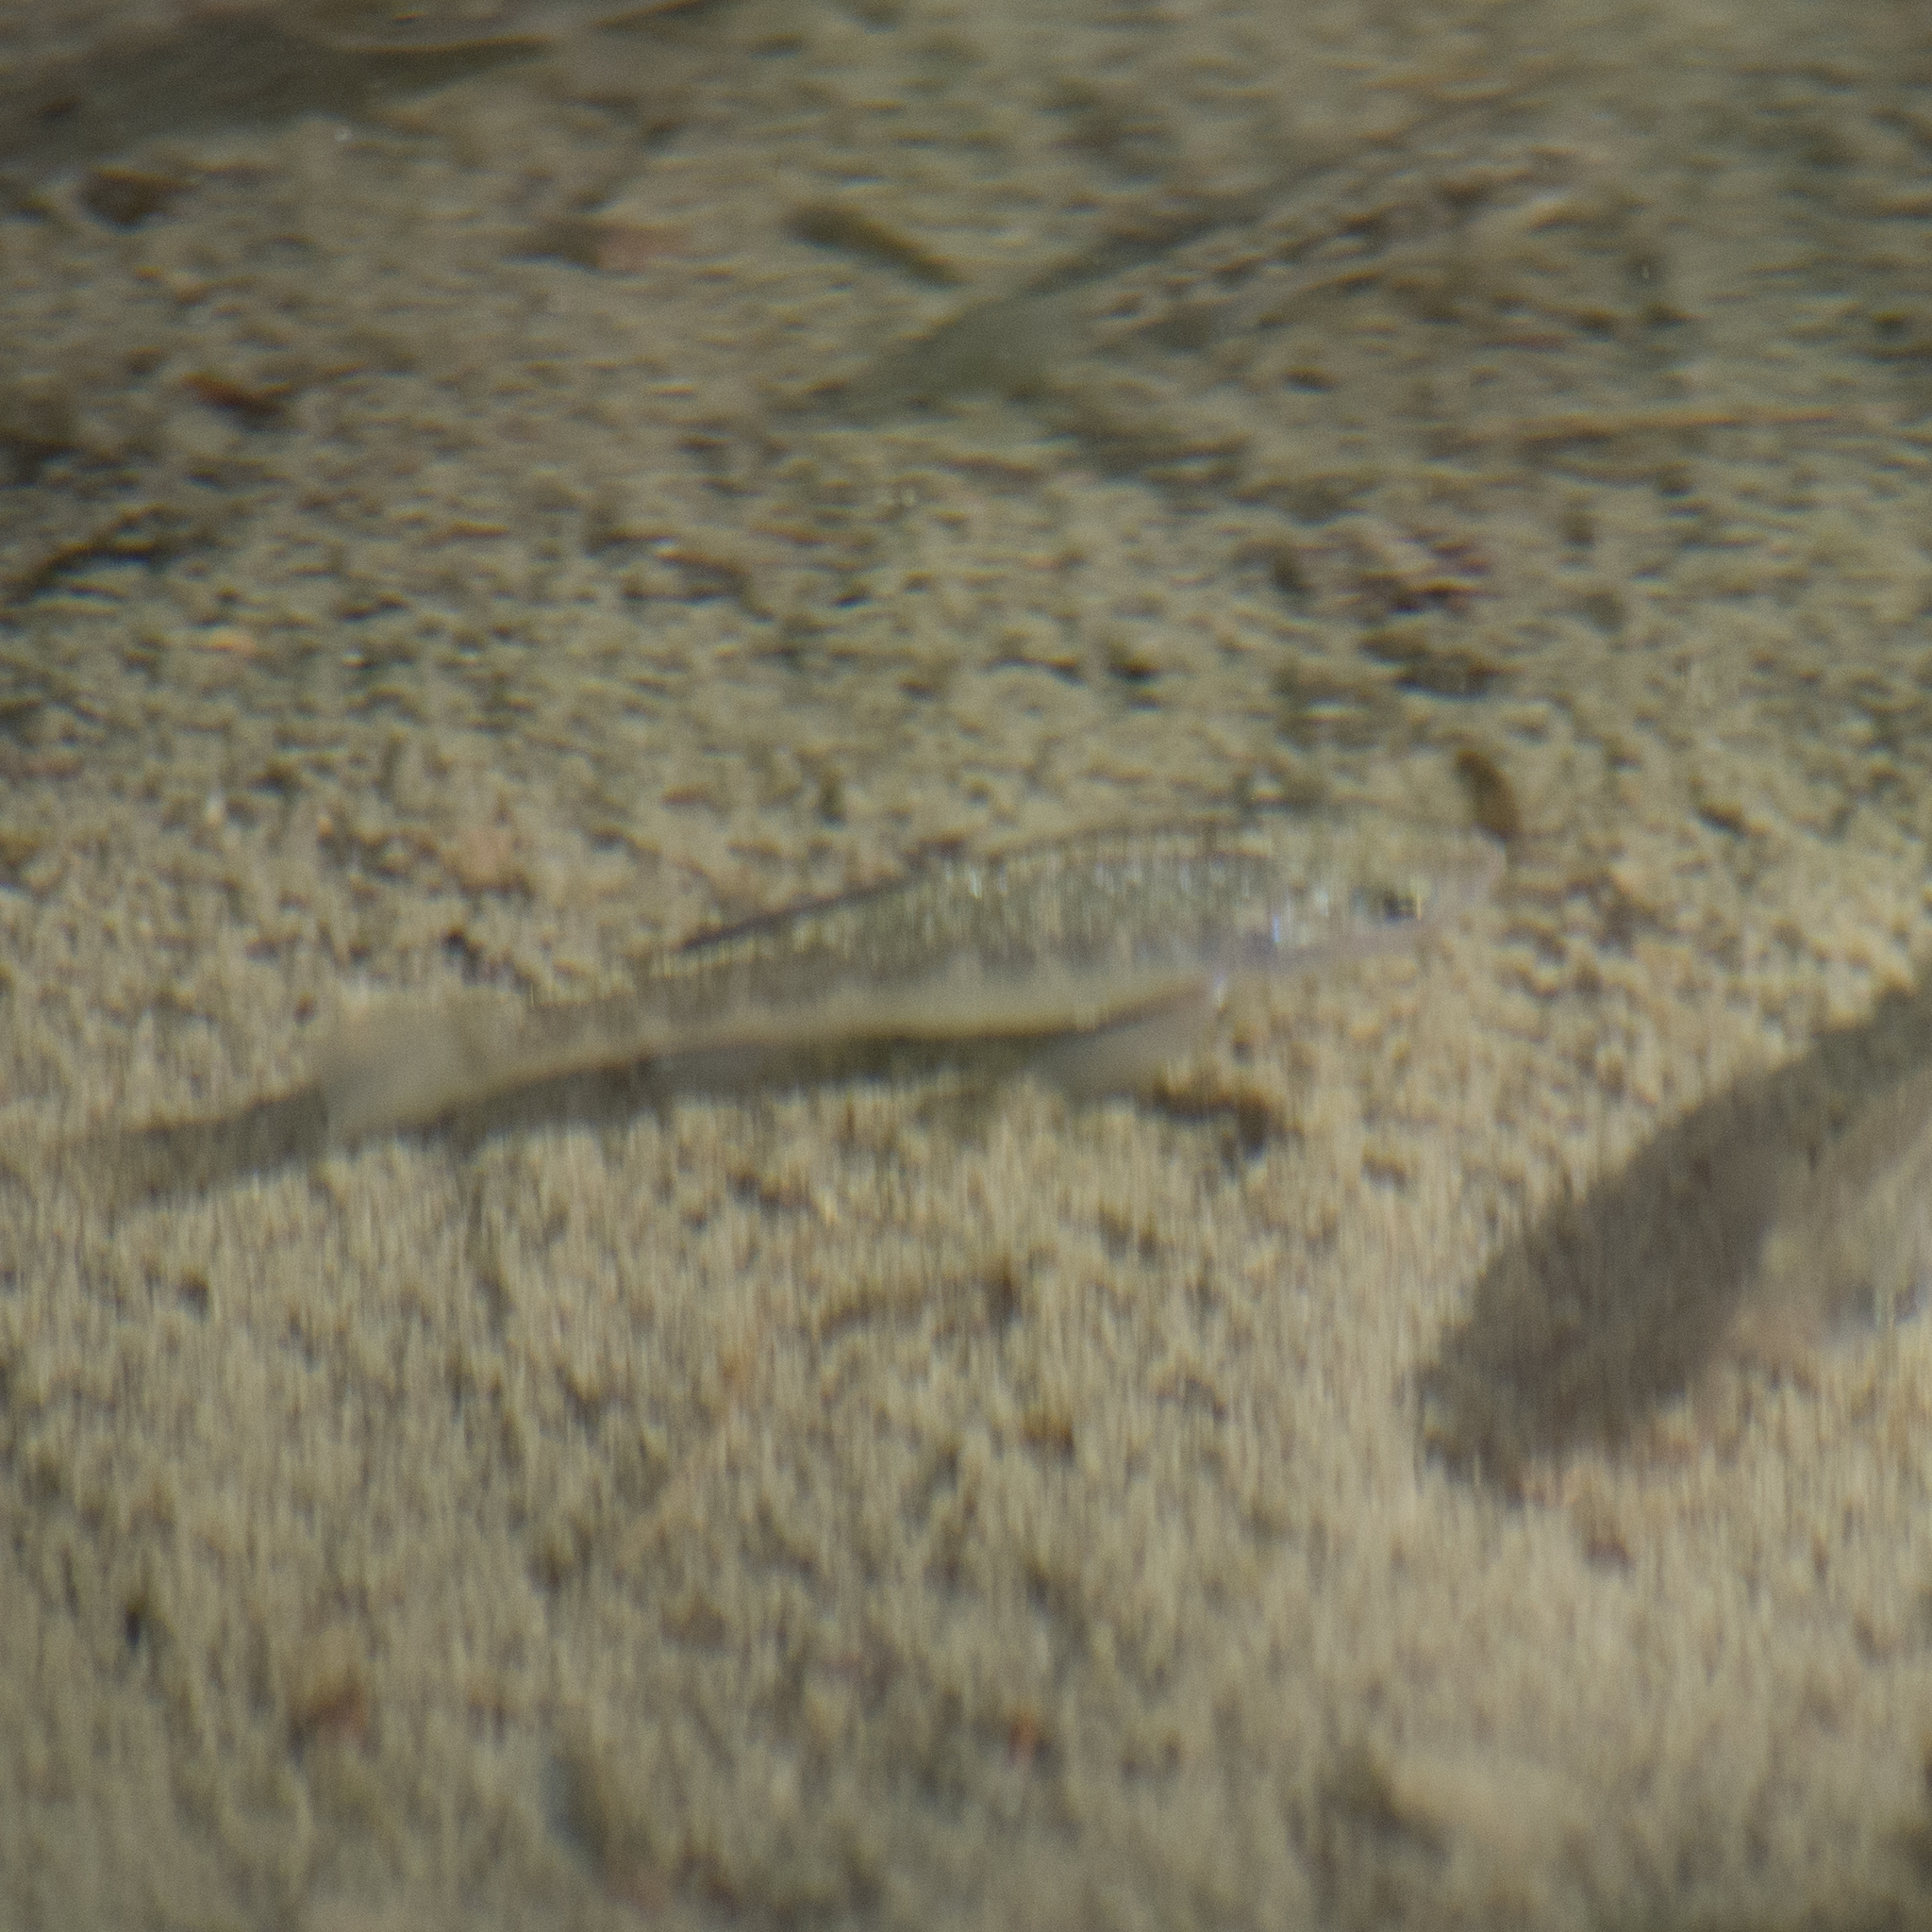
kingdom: Animalia
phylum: Chordata
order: Cyprinodontiformes
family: Cyprinodontidae
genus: Cyprinodon
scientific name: Cyprinodon eremus
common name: Sonoyta pupfish
